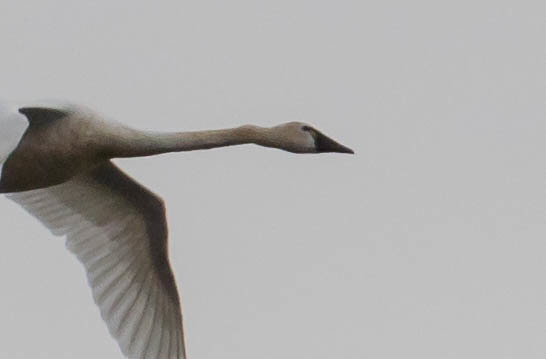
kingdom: Animalia
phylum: Chordata
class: Aves
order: Anseriformes
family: Anatidae
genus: Cygnus
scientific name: Cygnus columbianus
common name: Tundra swan
